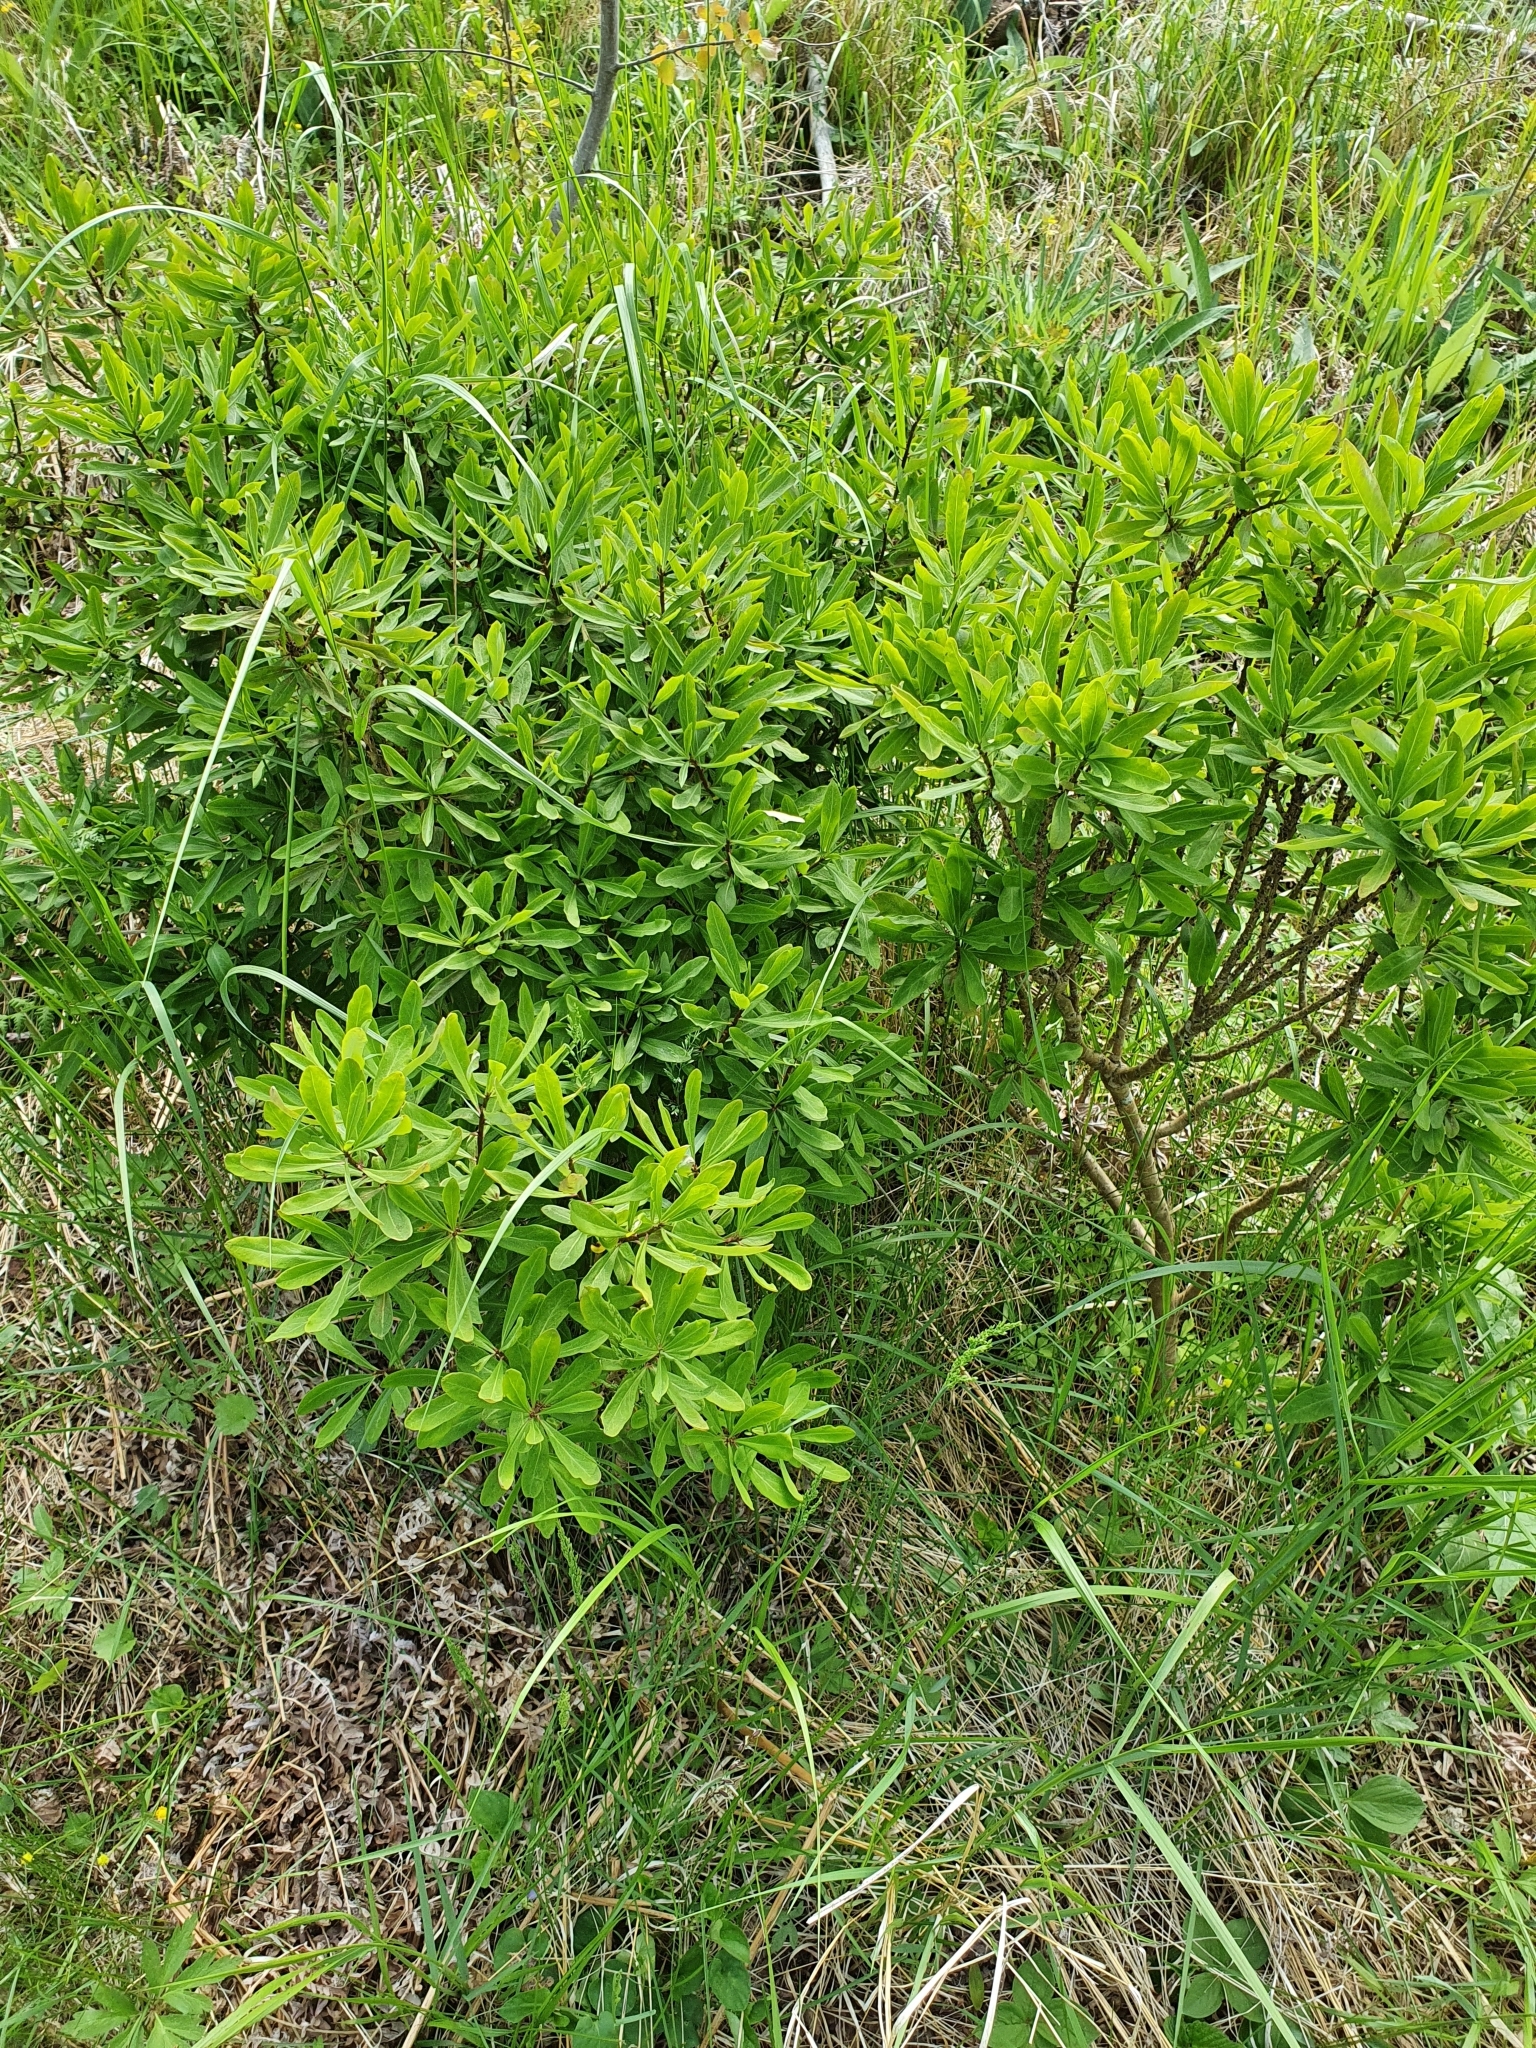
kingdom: Plantae
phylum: Tracheophyta
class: Magnoliopsida
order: Malvales
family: Thymelaeaceae
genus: Daphne
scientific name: Daphne mezereum
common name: Mezereon
